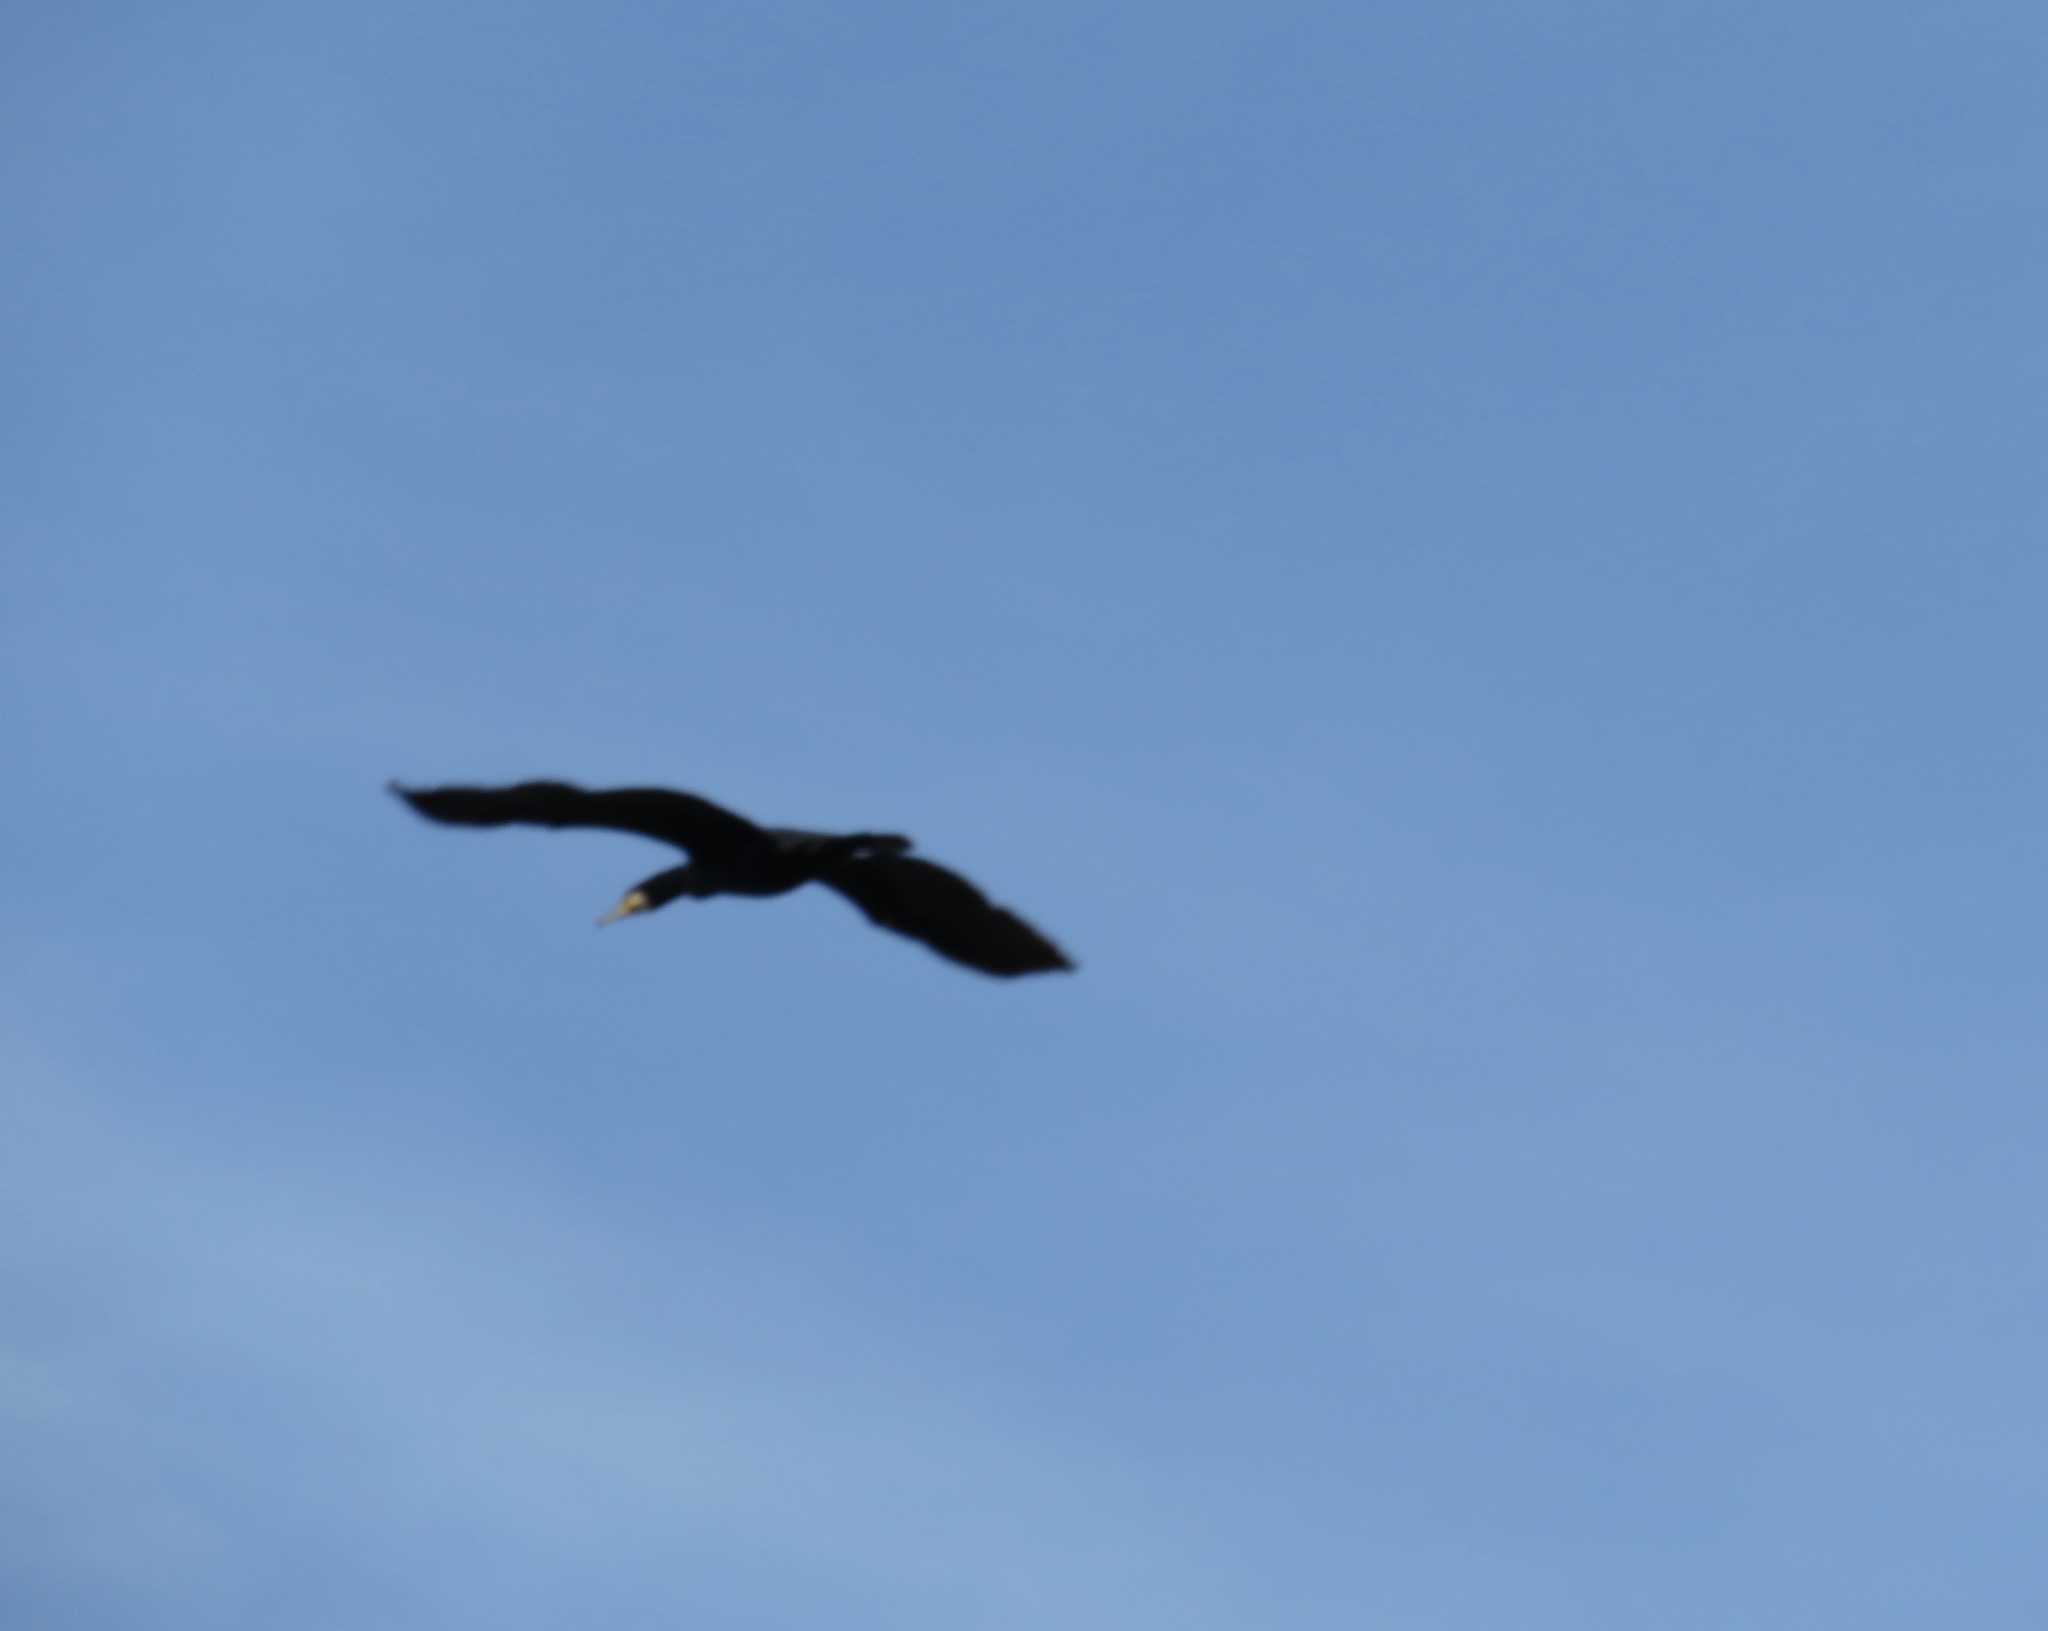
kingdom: Animalia
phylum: Chordata
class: Aves
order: Suliformes
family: Phalacrocoracidae
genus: Phalacrocorax
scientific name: Phalacrocorax carbo
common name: Great cormorant
